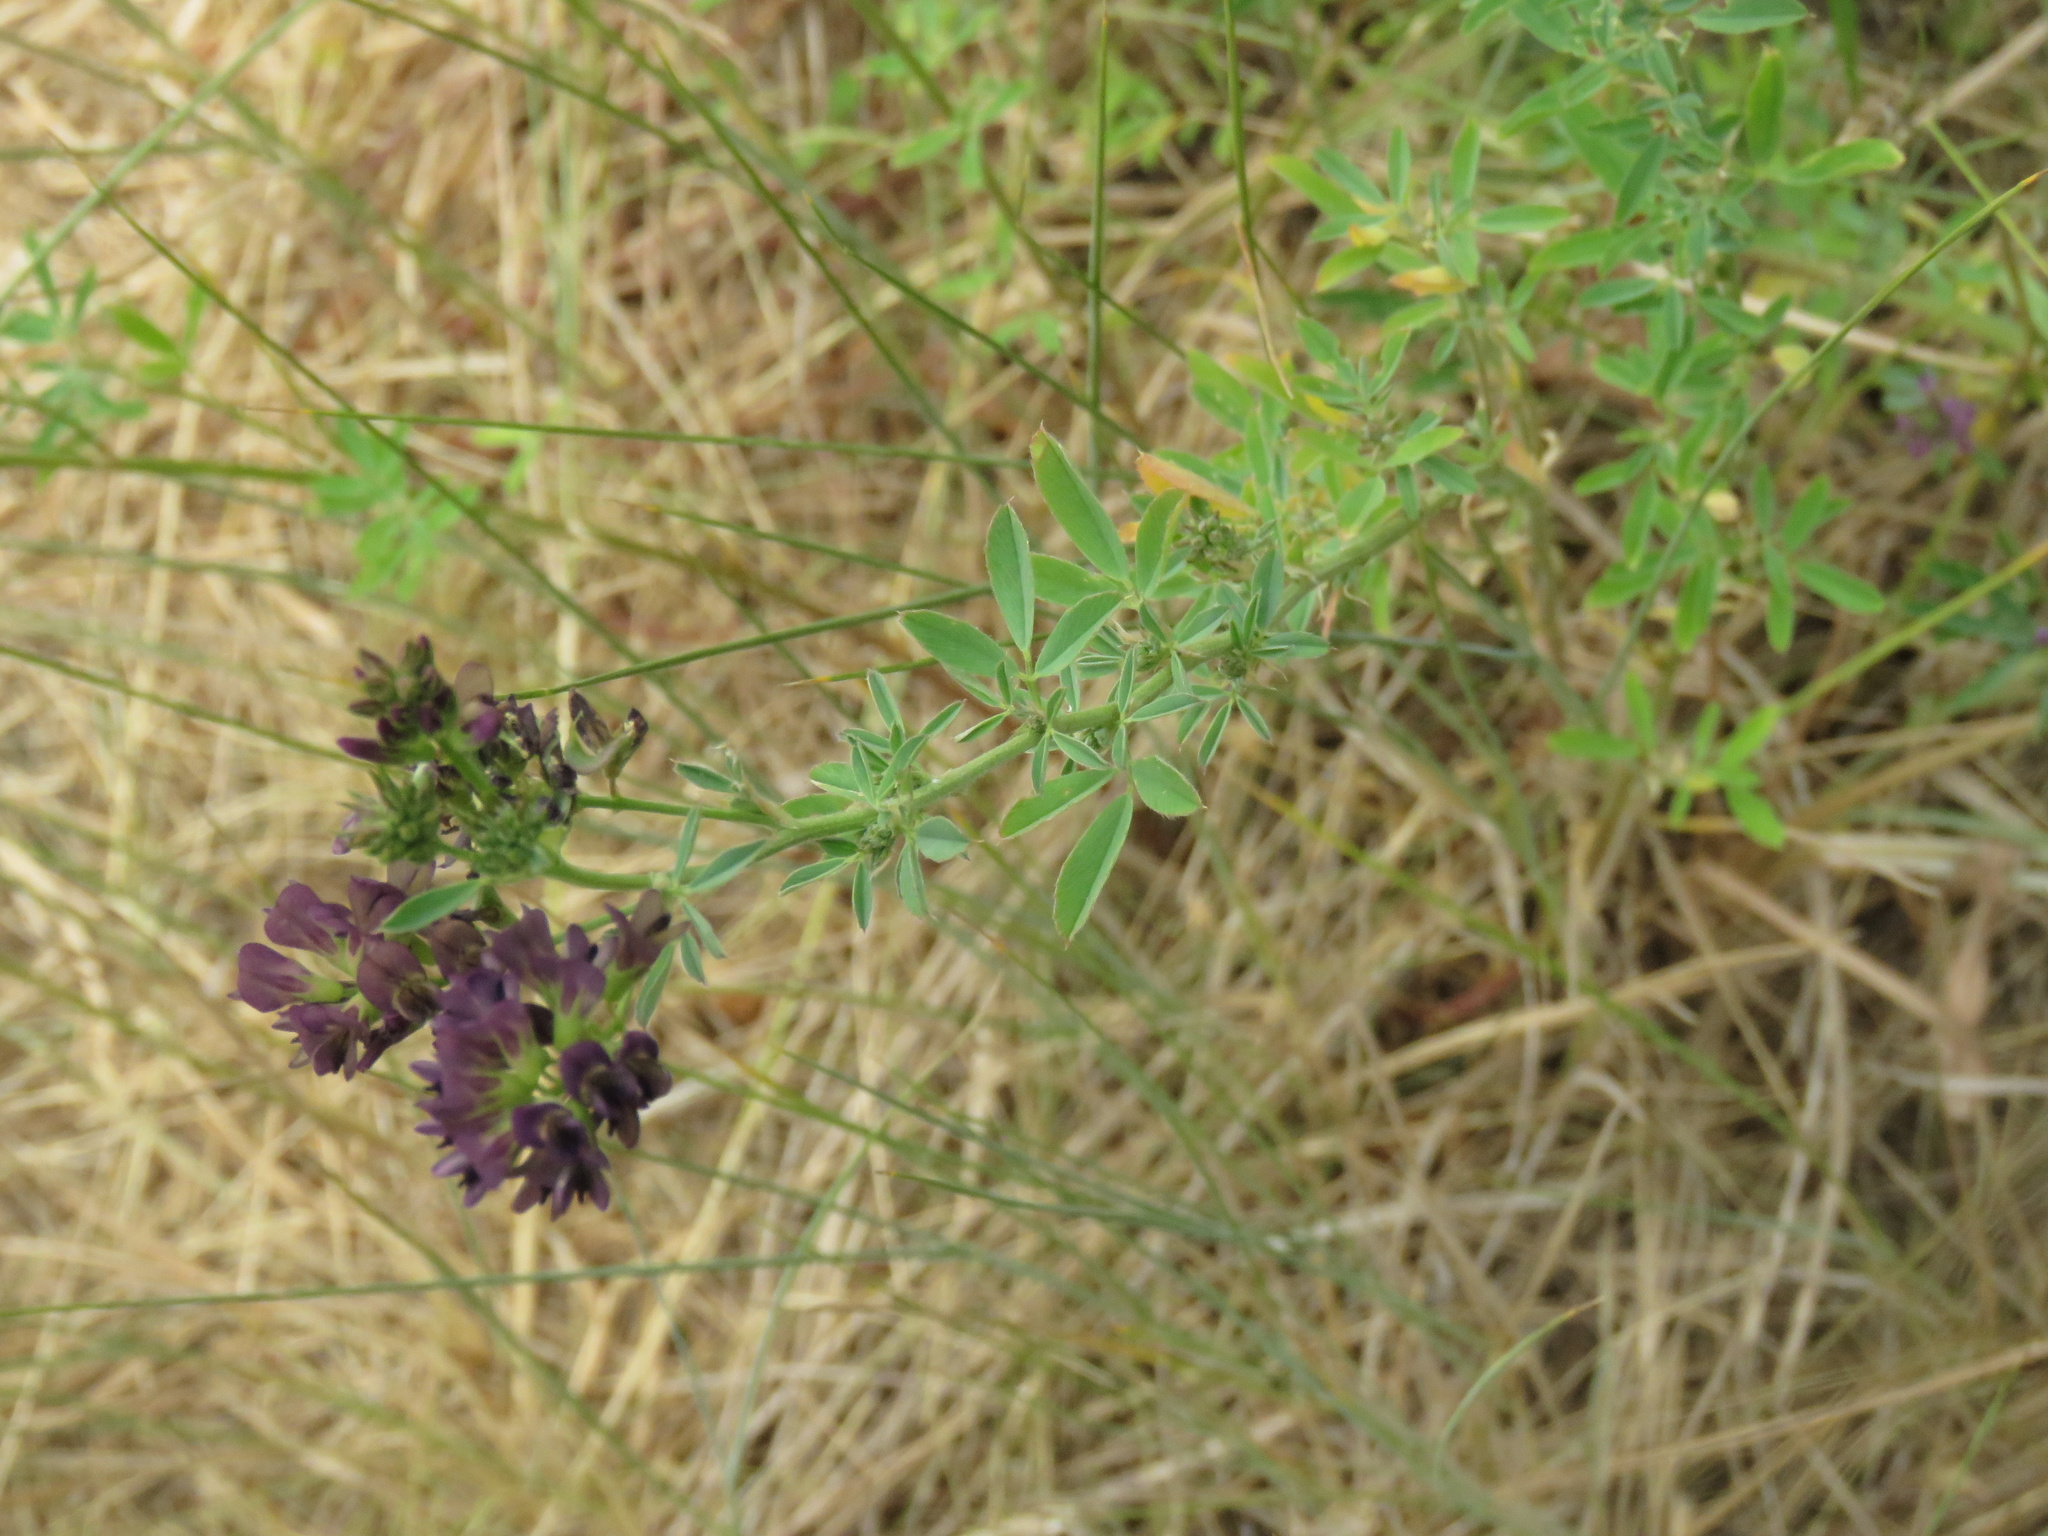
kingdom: Plantae
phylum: Tracheophyta
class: Magnoliopsida
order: Fabales
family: Fabaceae
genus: Medicago
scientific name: Medicago sativa
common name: Alfalfa
